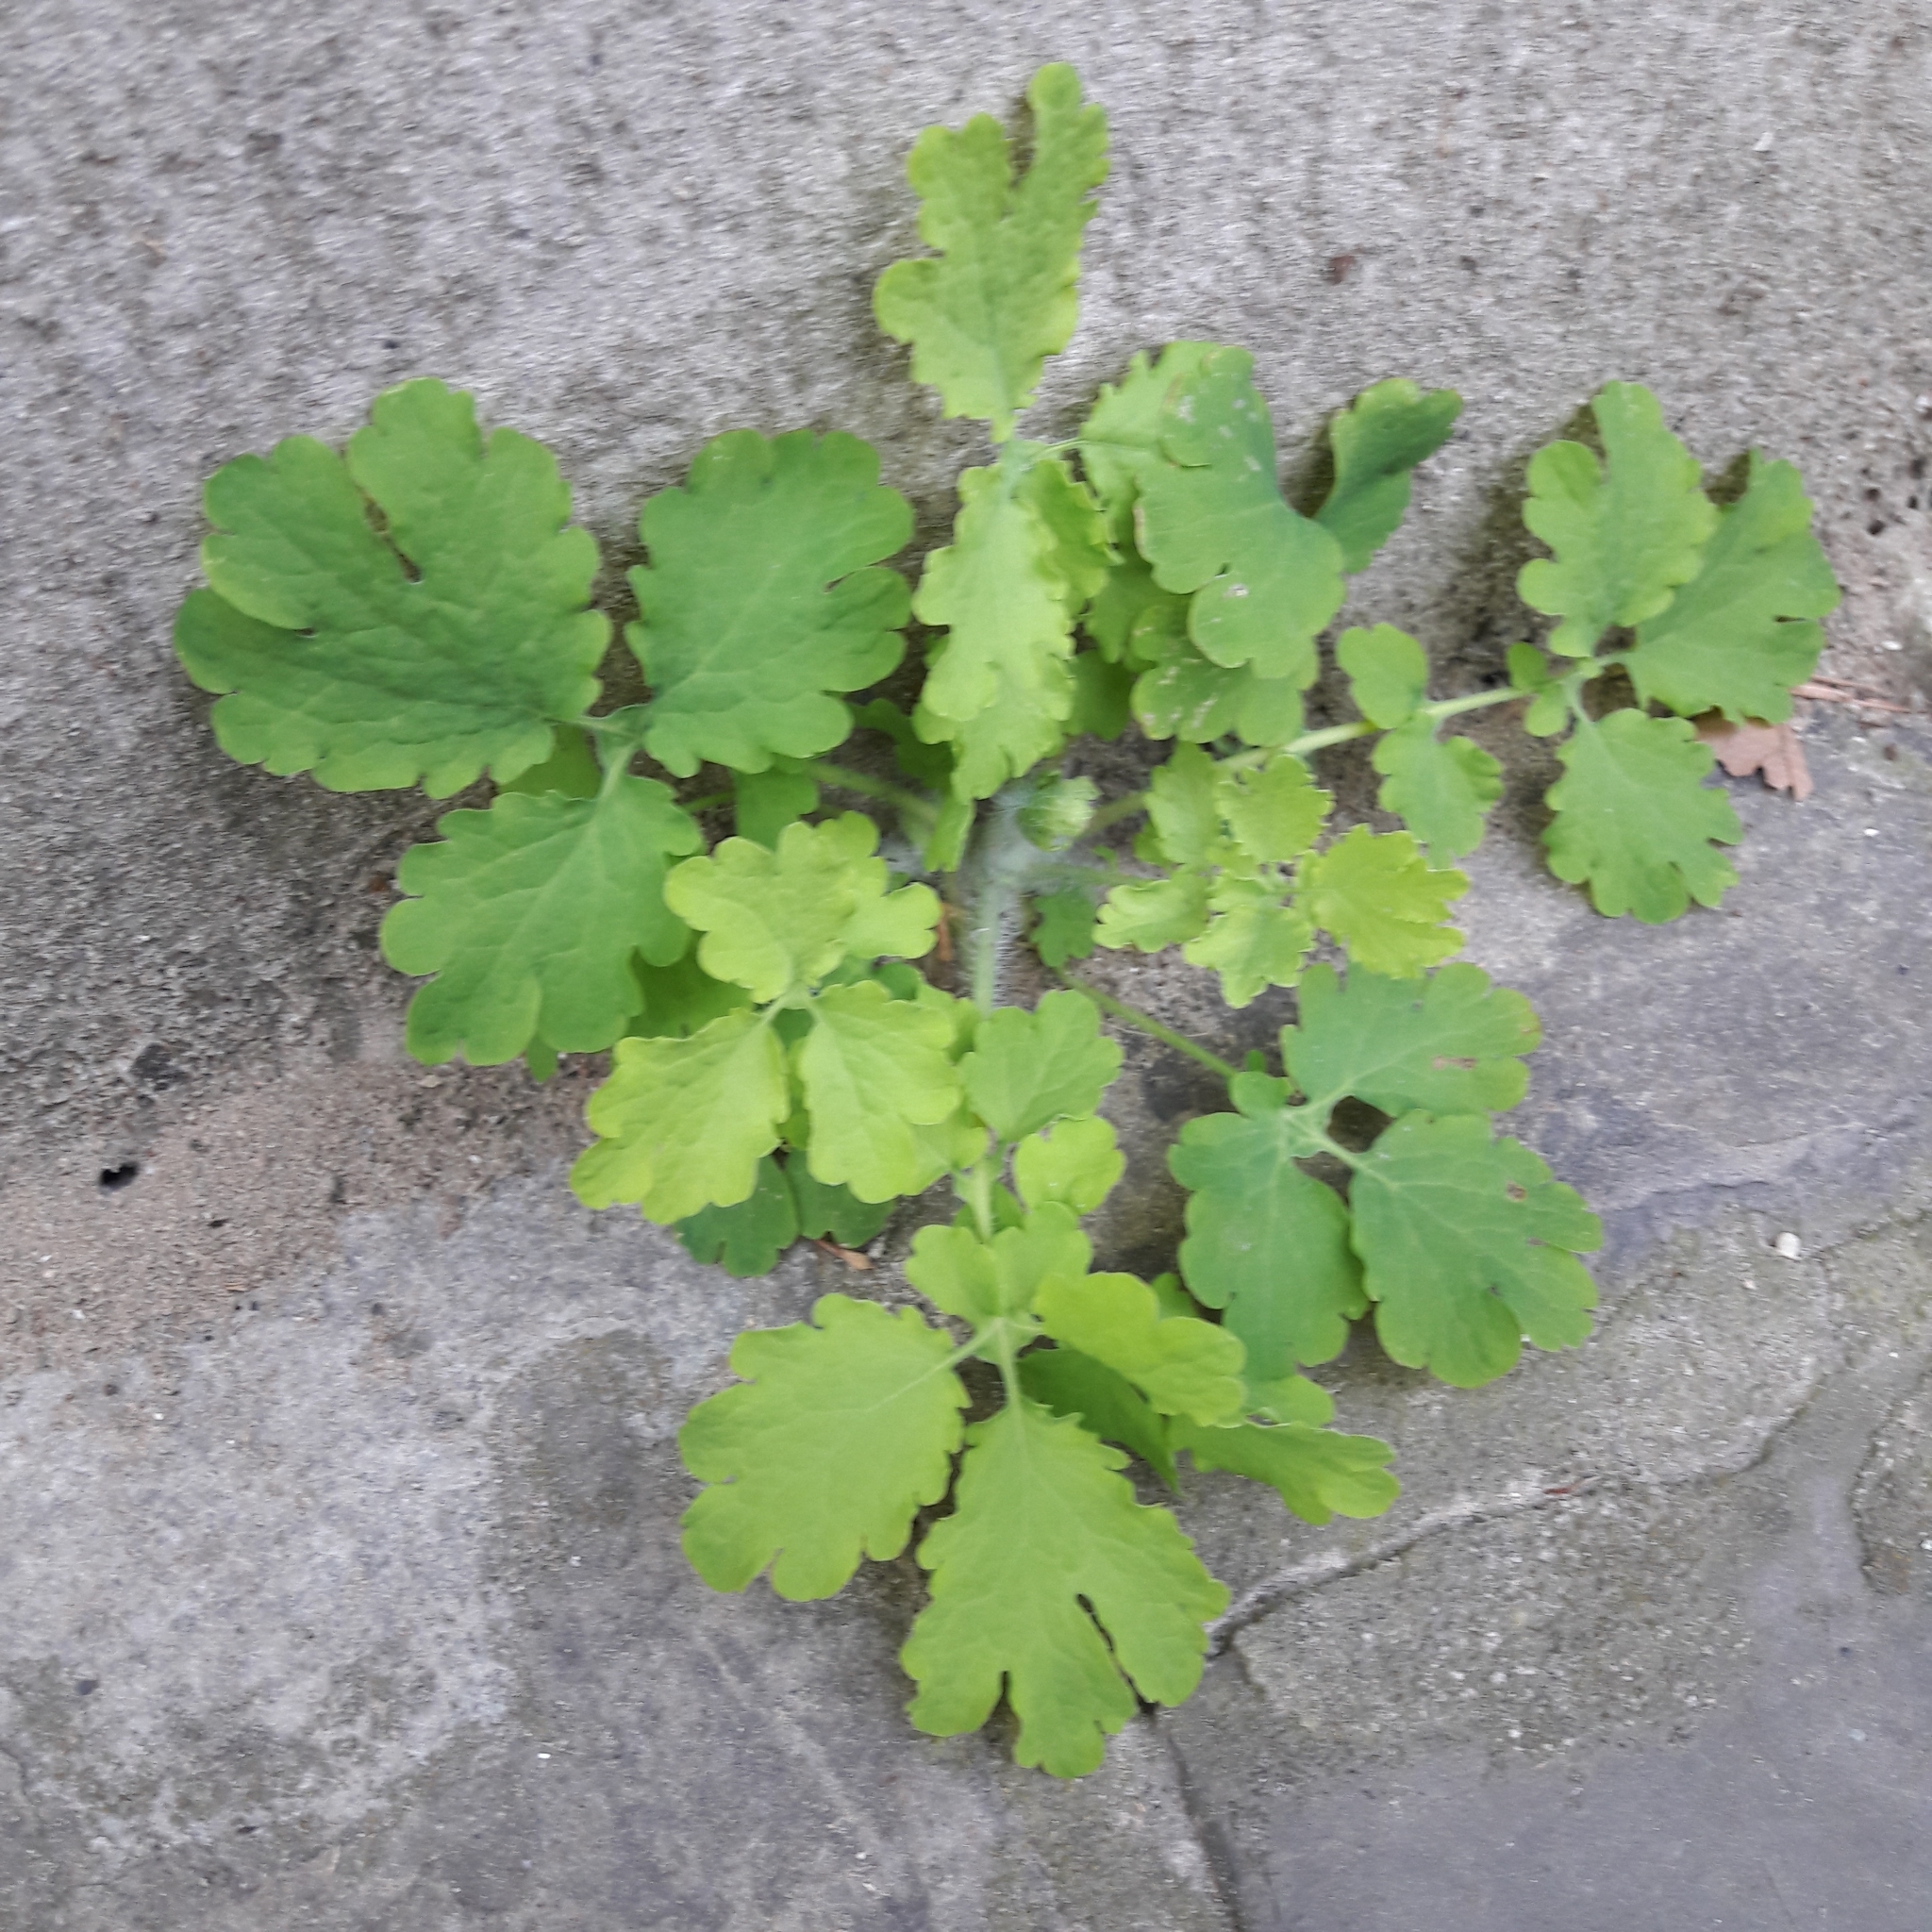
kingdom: Plantae
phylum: Tracheophyta
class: Magnoliopsida
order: Ranunculales
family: Papaveraceae
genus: Chelidonium
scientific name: Chelidonium majus
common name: Greater celandine
